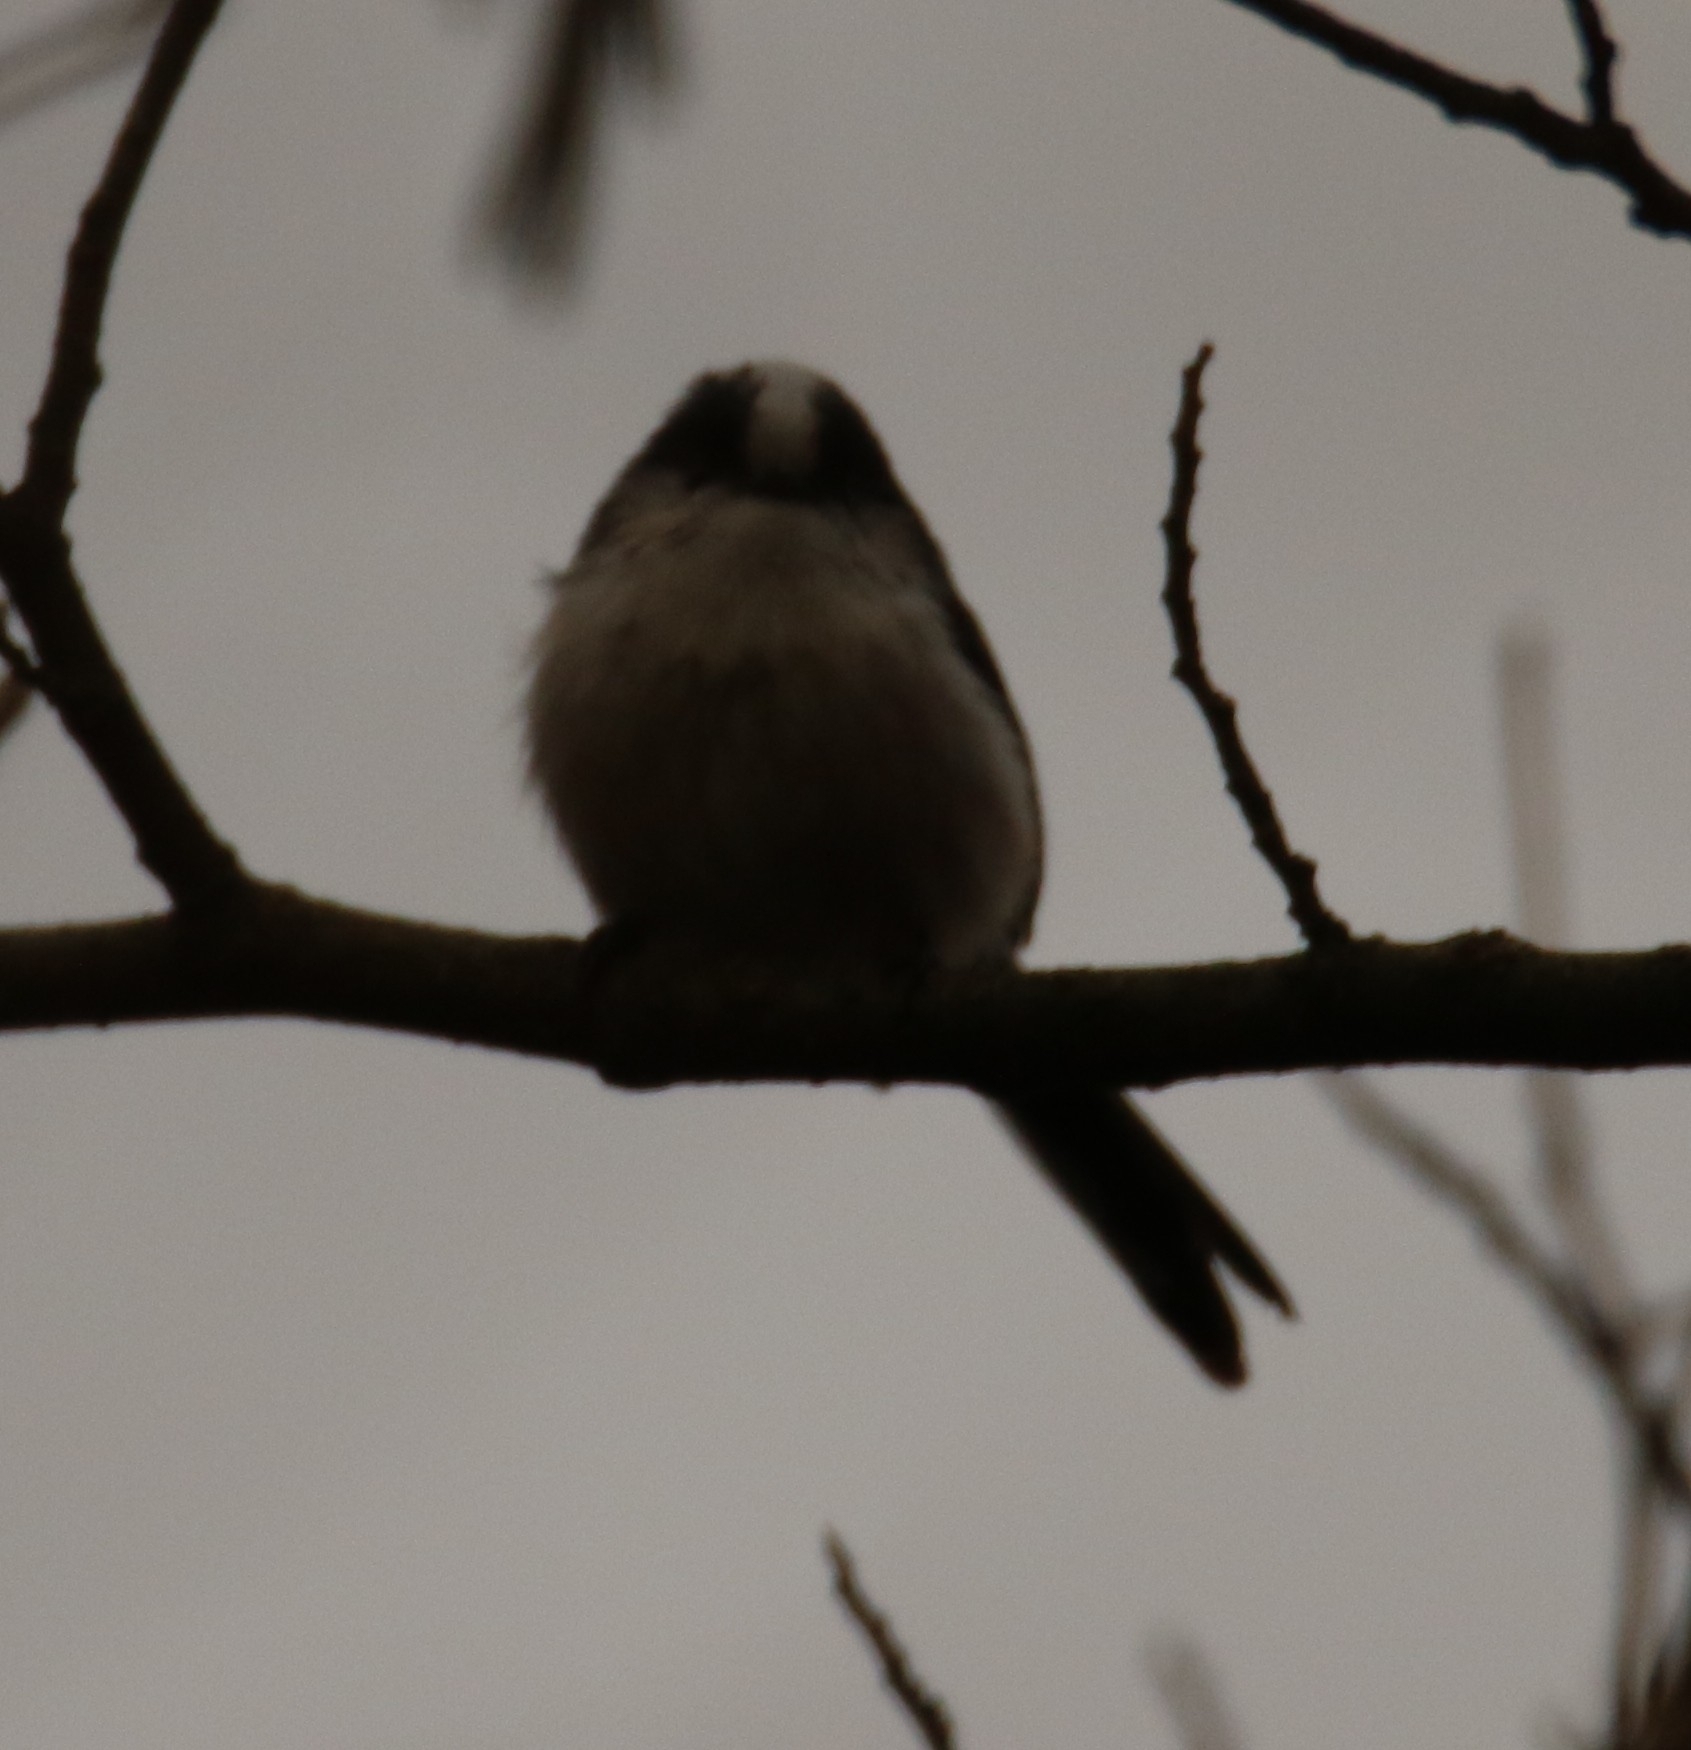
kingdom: Animalia
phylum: Chordata
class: Aves
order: Passeriformes
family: Aegithalidae
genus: Aegithalos
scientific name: Aegithalos caudatus
